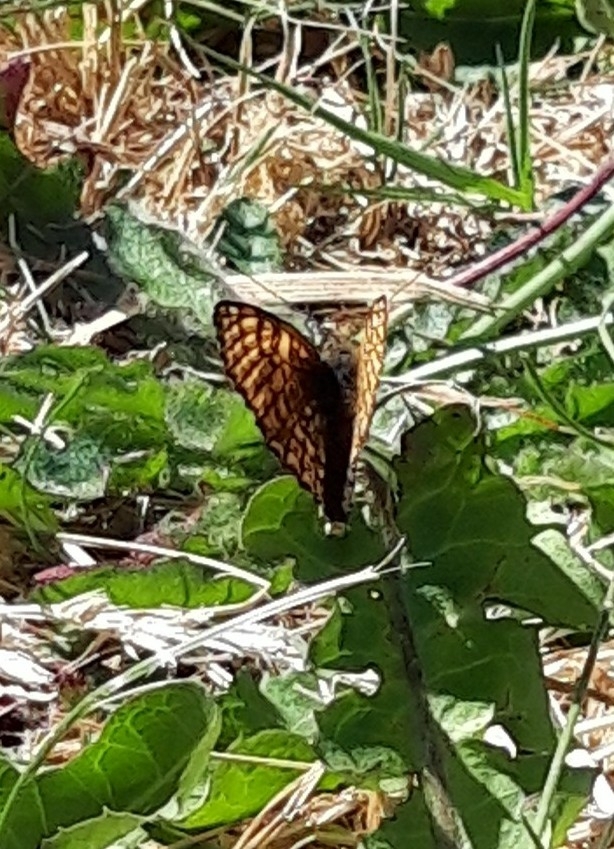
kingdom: Animalia
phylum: Arthropoda
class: Insecta
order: Lepidoptera
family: Nymphalidae
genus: Melitaea
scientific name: Melitaea cinxia
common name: Glanville fritillary
